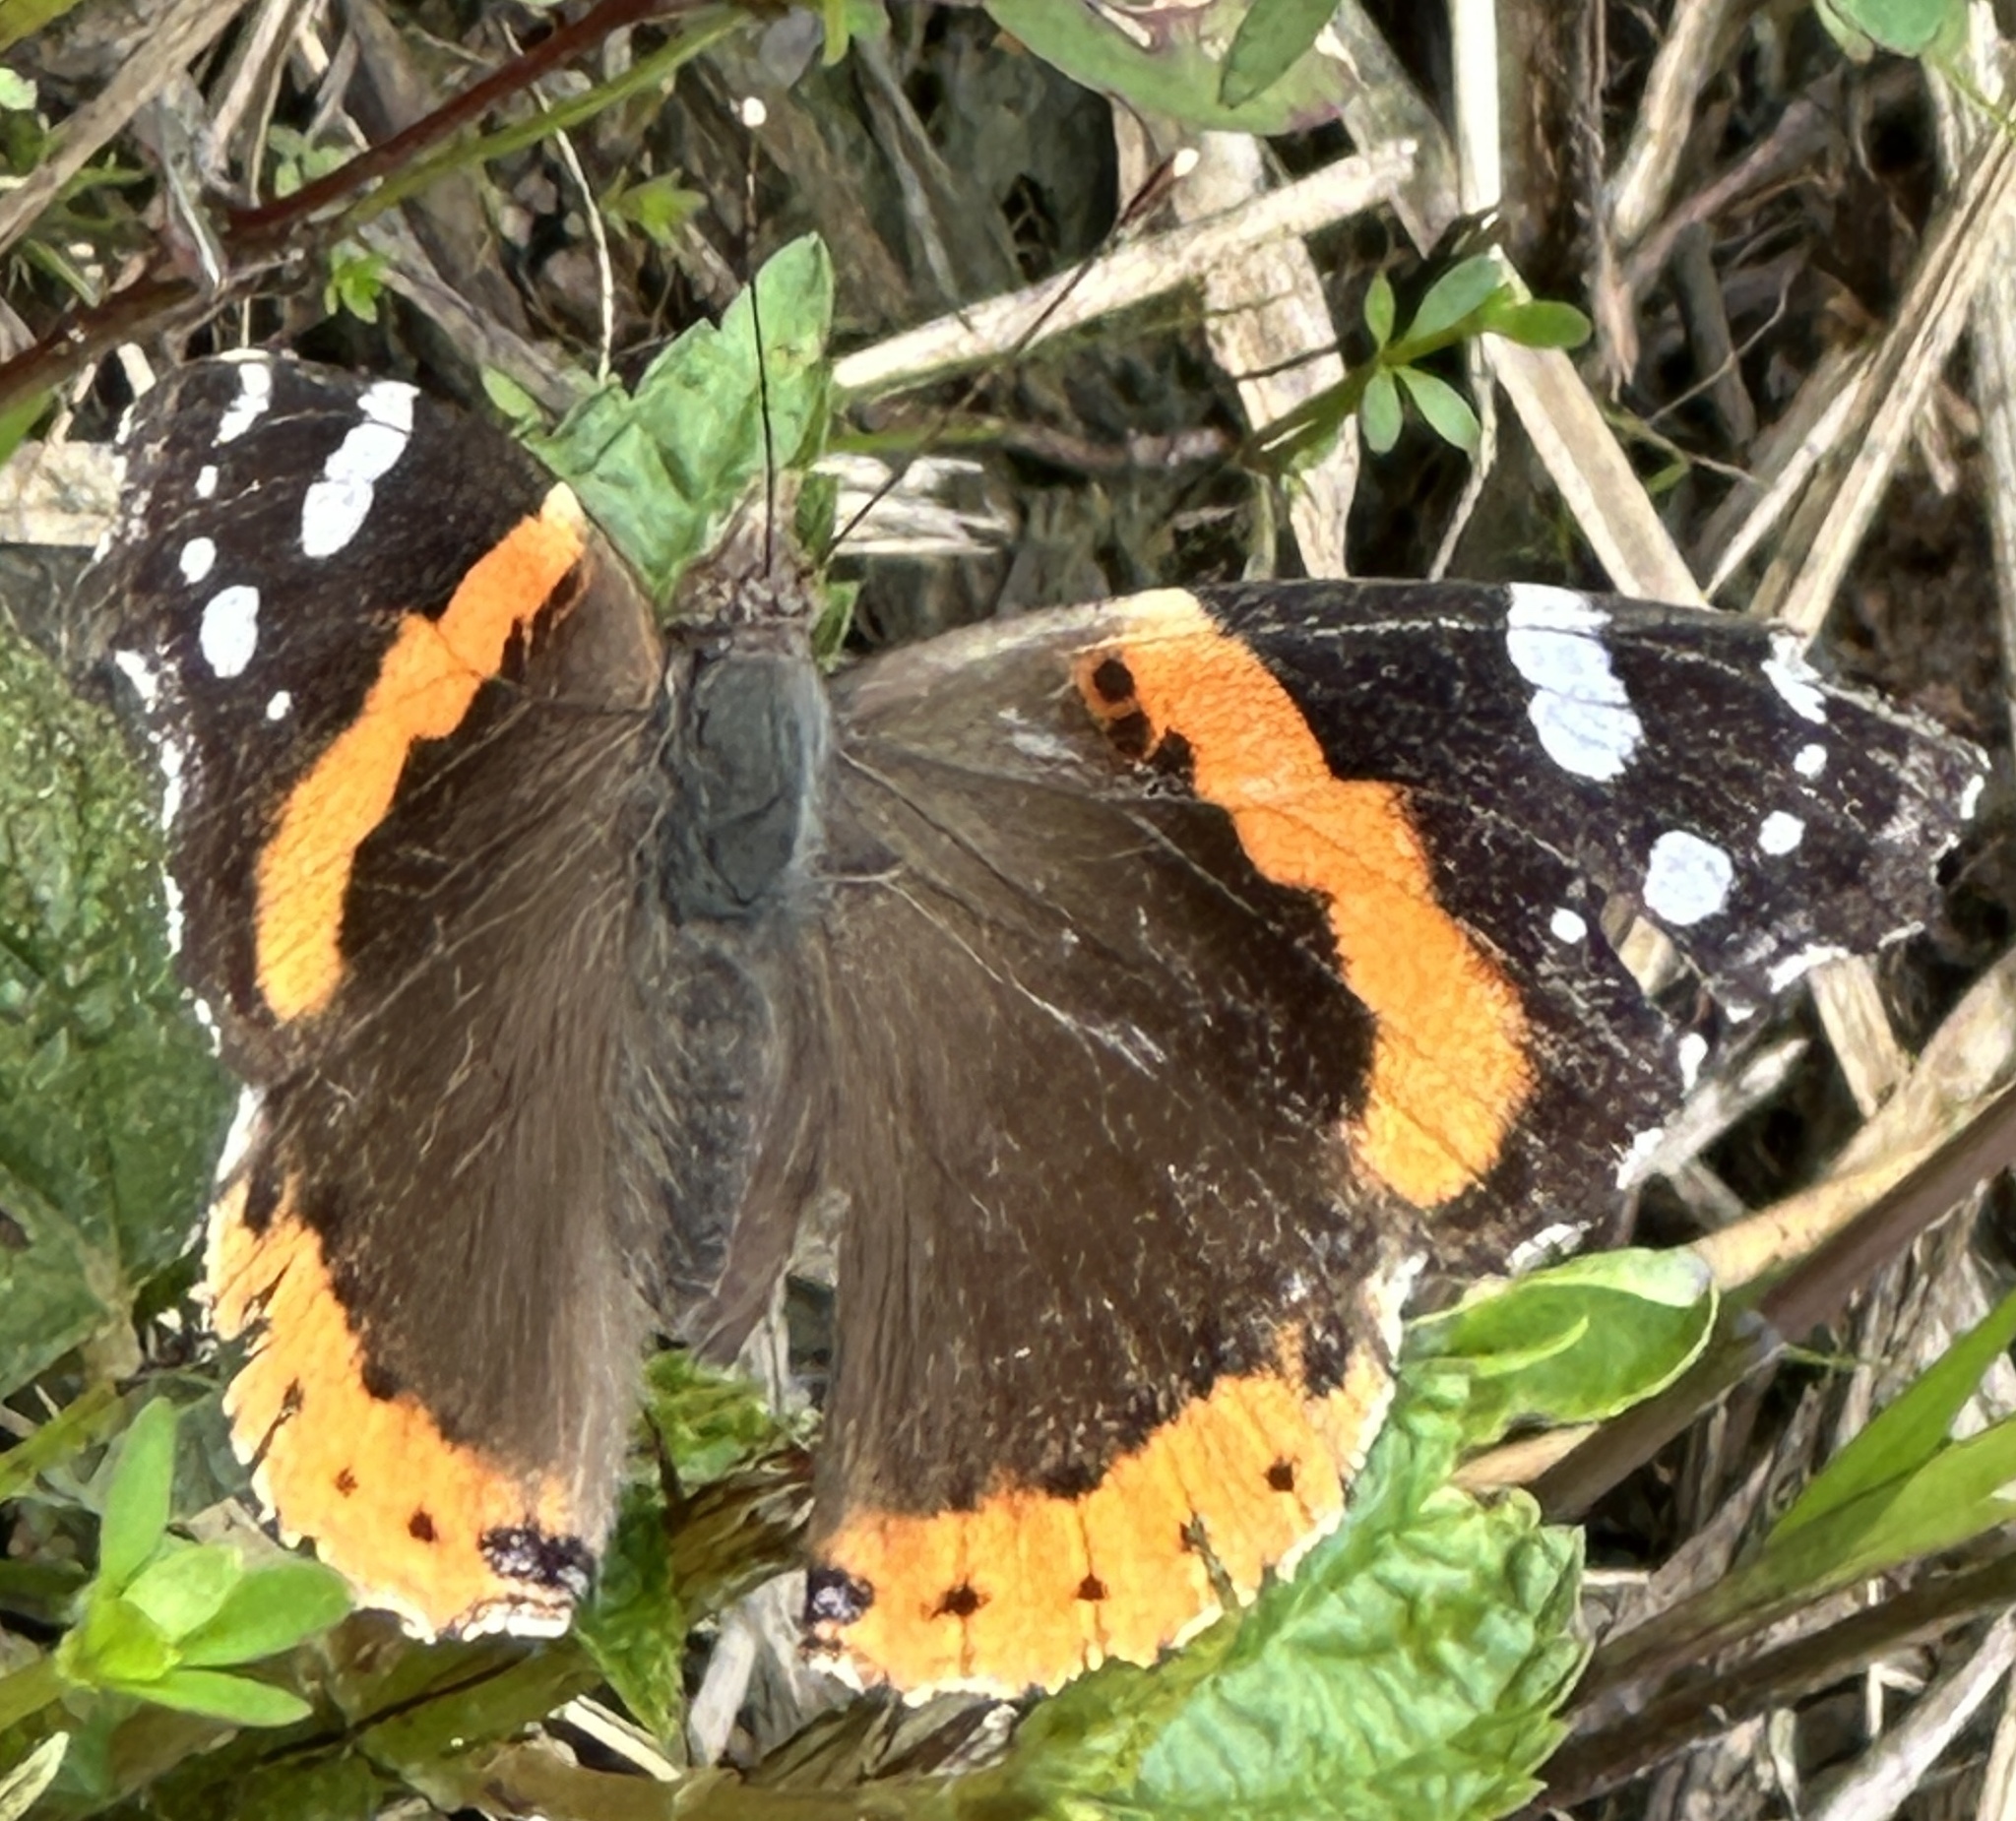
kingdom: Animalia
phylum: Arthropoda
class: Insecta
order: Lepidoptera
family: Nymphalidae
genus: Vanessa
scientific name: Vanessa atalanta
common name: Red admiral
